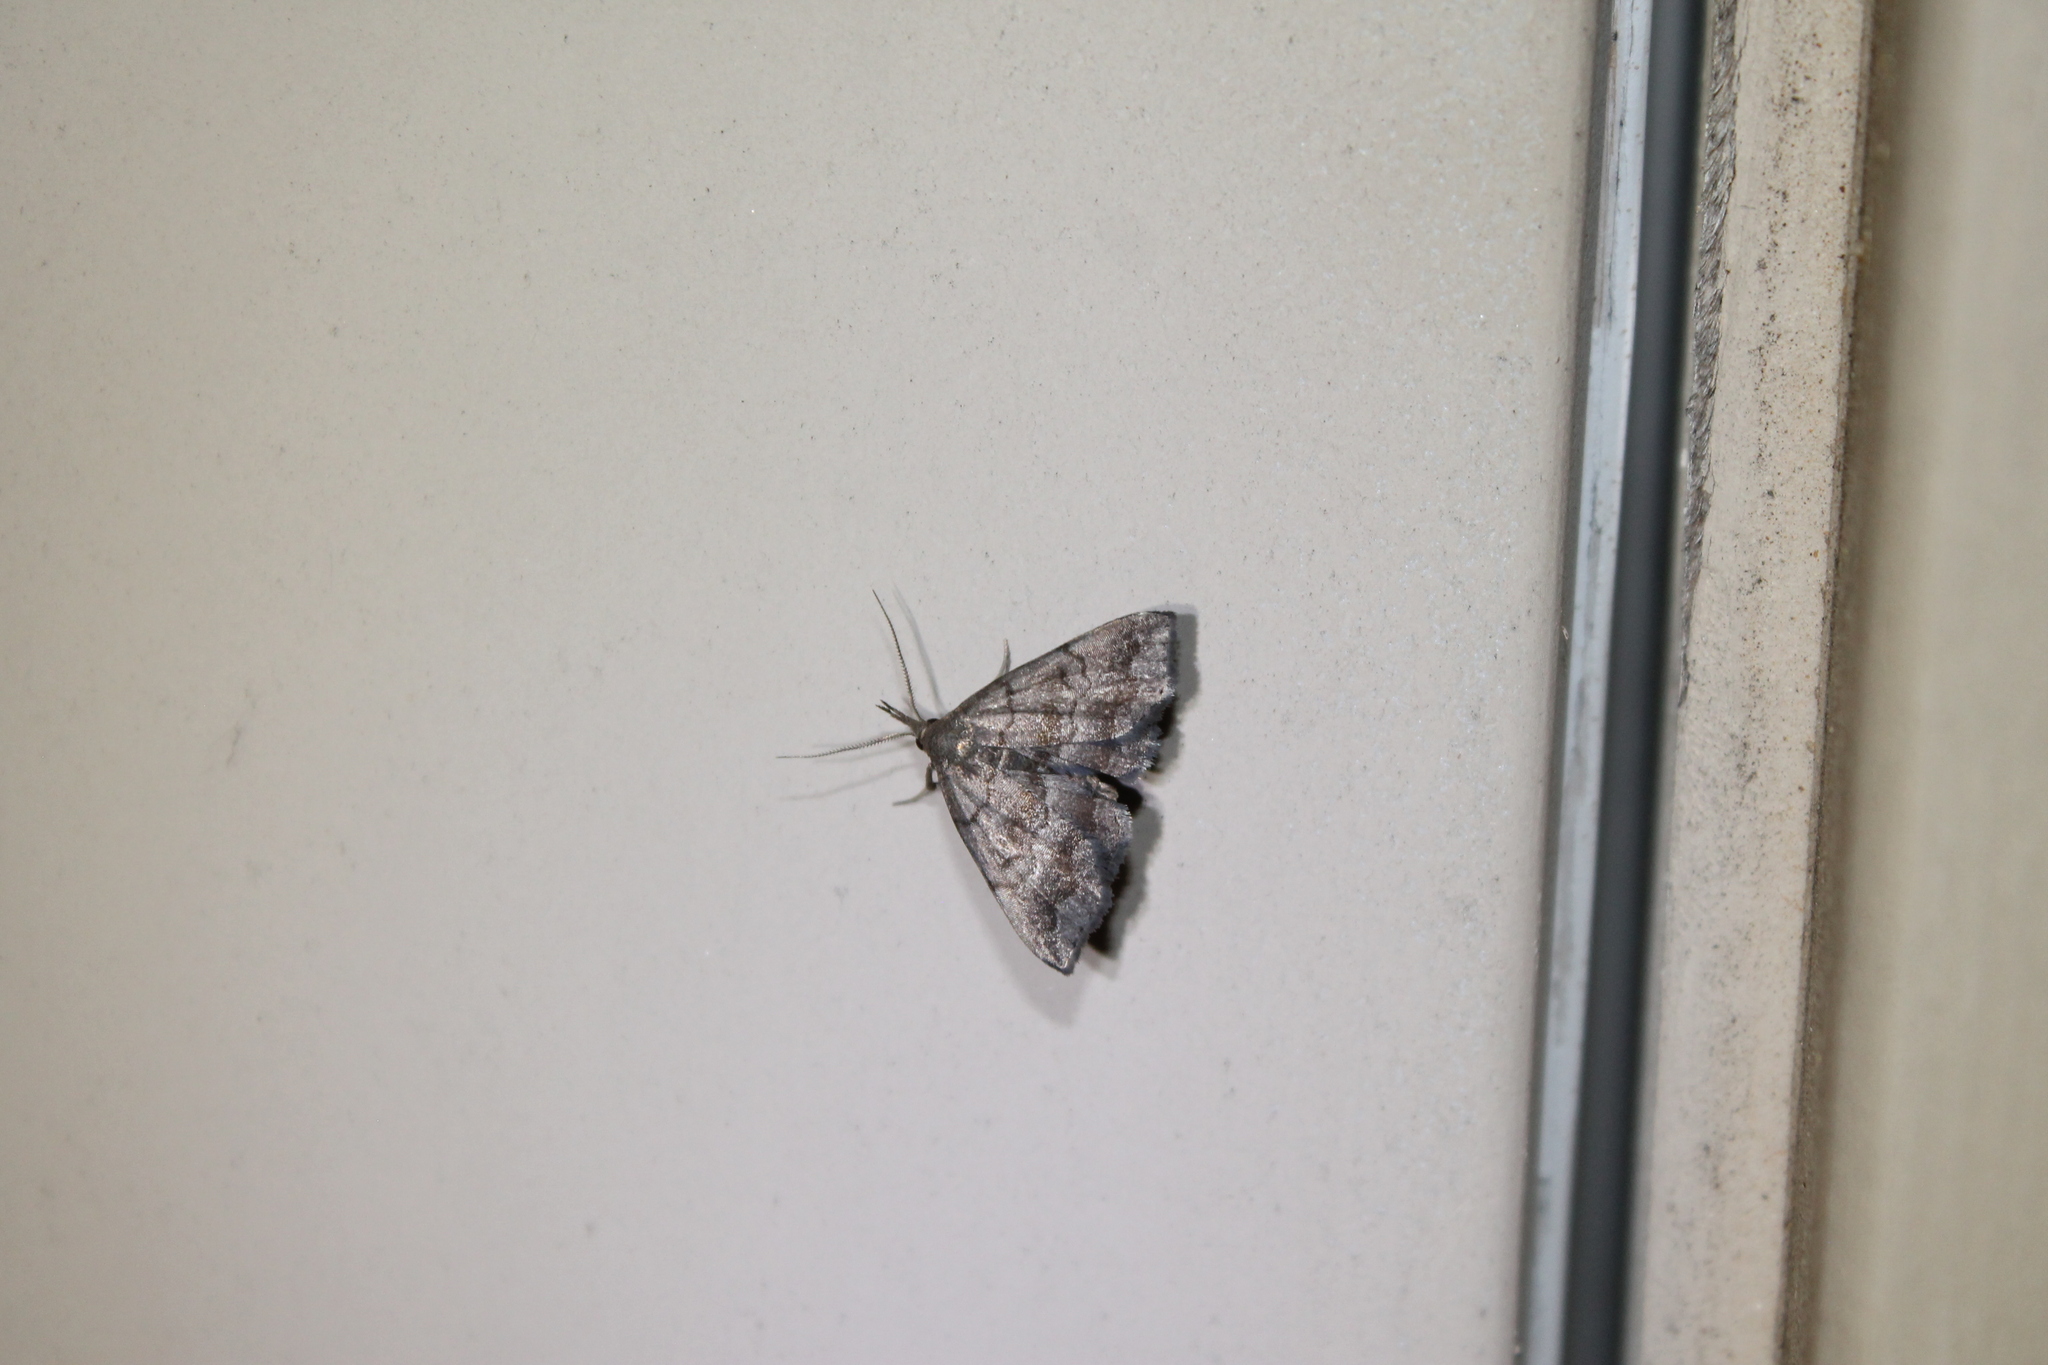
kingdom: Animalia
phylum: Arthropoda
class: Insecta
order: Lepidoptera
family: Erebidae
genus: Phalaenostola
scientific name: Phalaenostola larentioides
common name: Black-banded owlet
